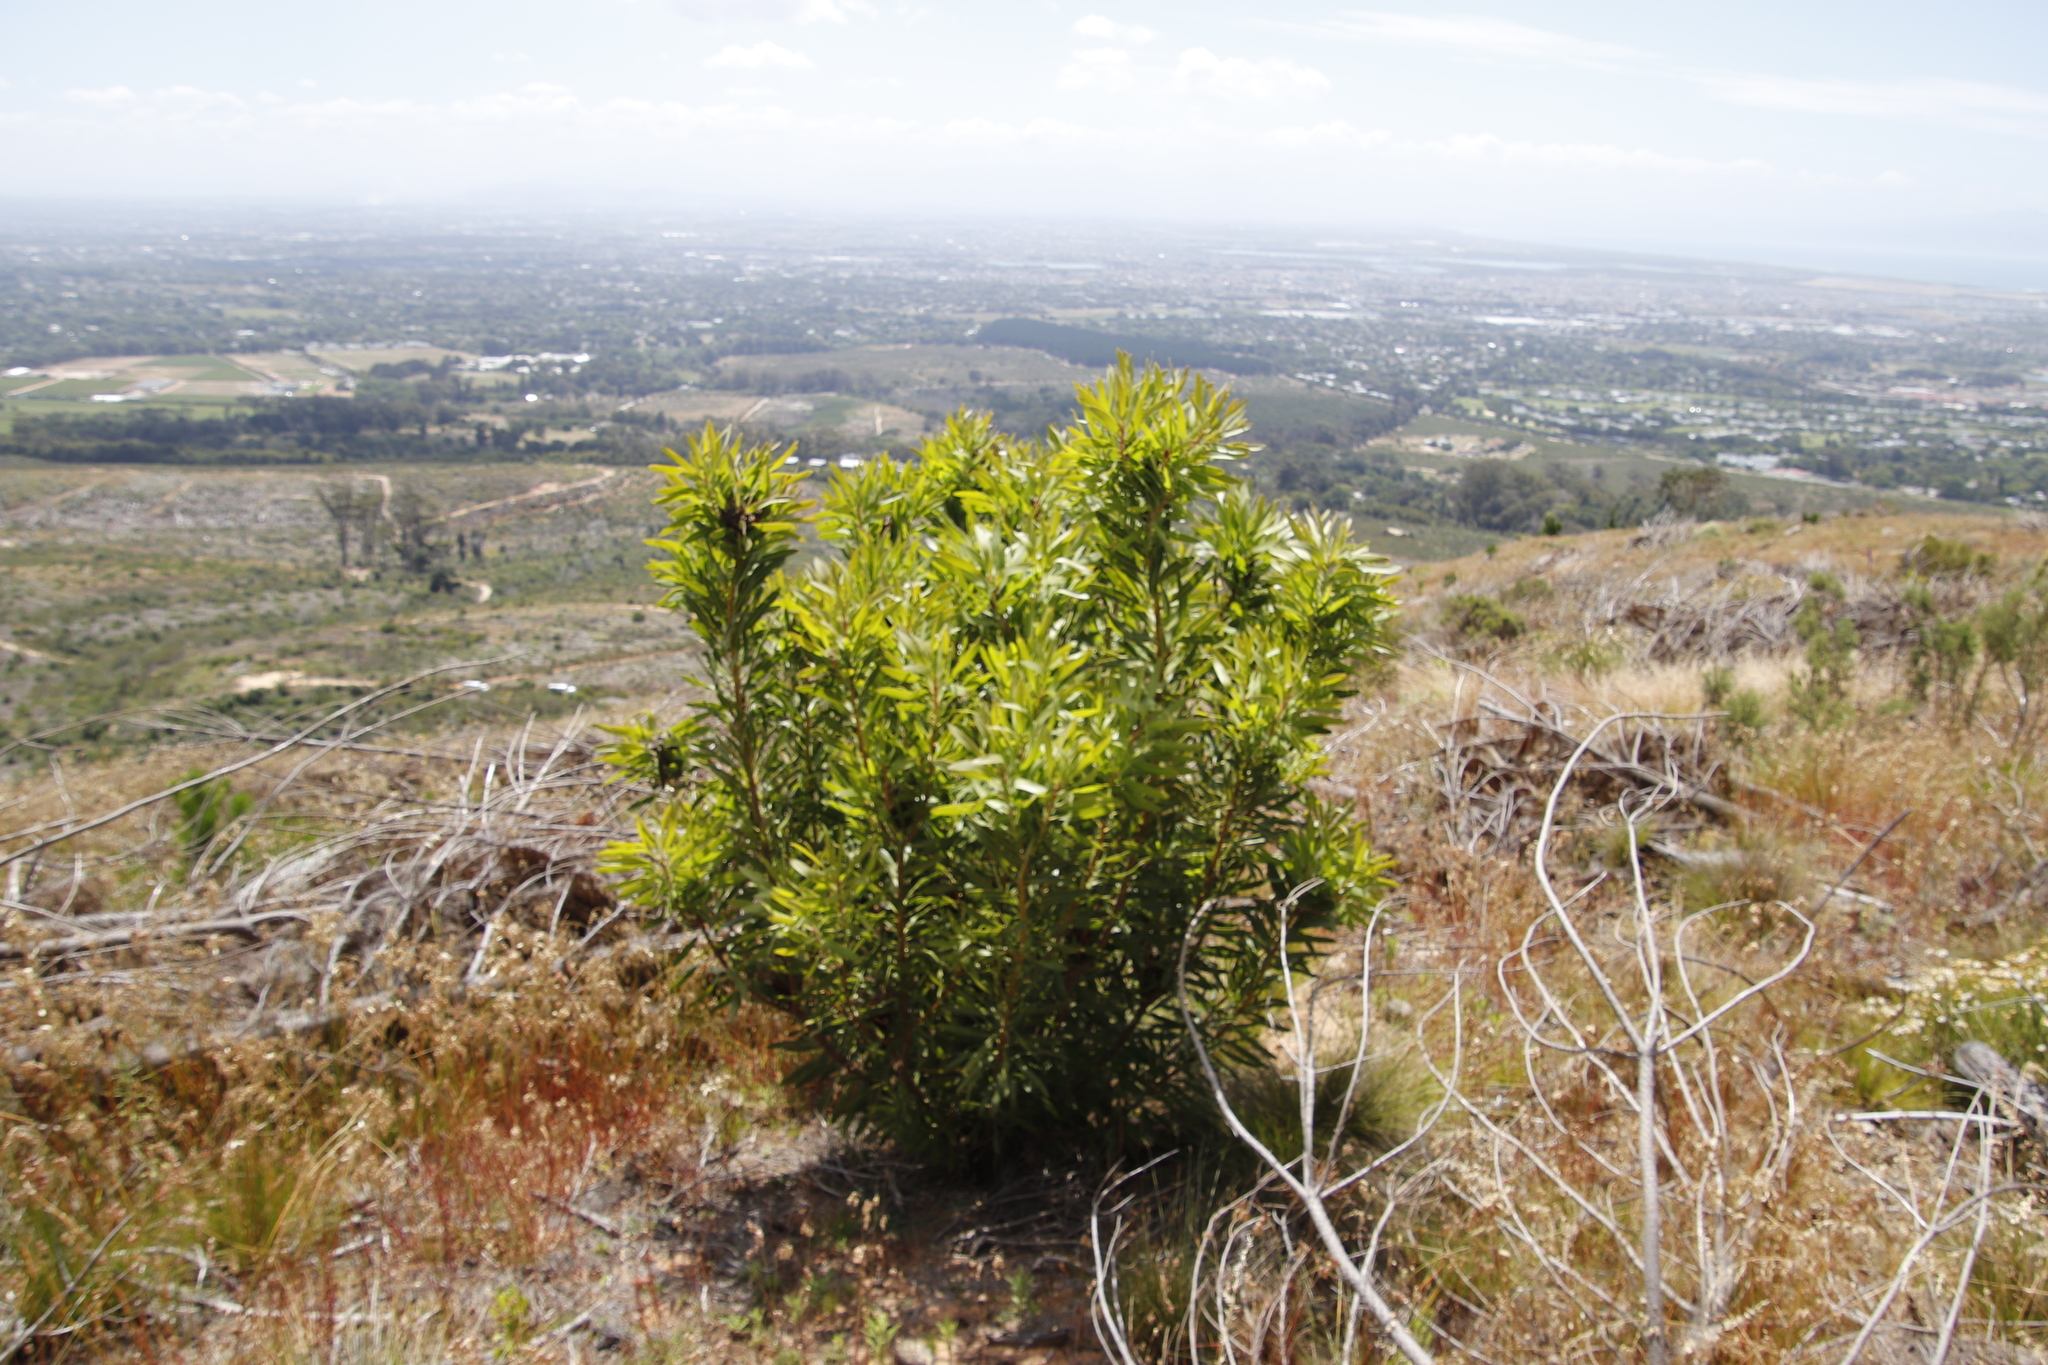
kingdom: Plantae
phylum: Tracheophyta
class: Magnoliopsida
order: Proteales
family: Proteaceae
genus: Protea
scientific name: Protea lepidocarpodendron
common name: Black-bearded protea
